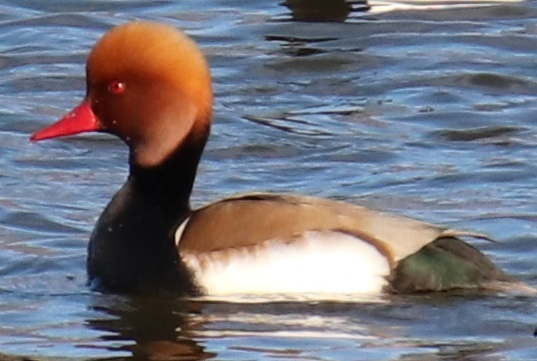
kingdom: Animalia
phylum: Chordata
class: Aves
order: Anseriformes
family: Anatidae
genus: Netta
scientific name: Netta rufina
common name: Red-crested pochard
